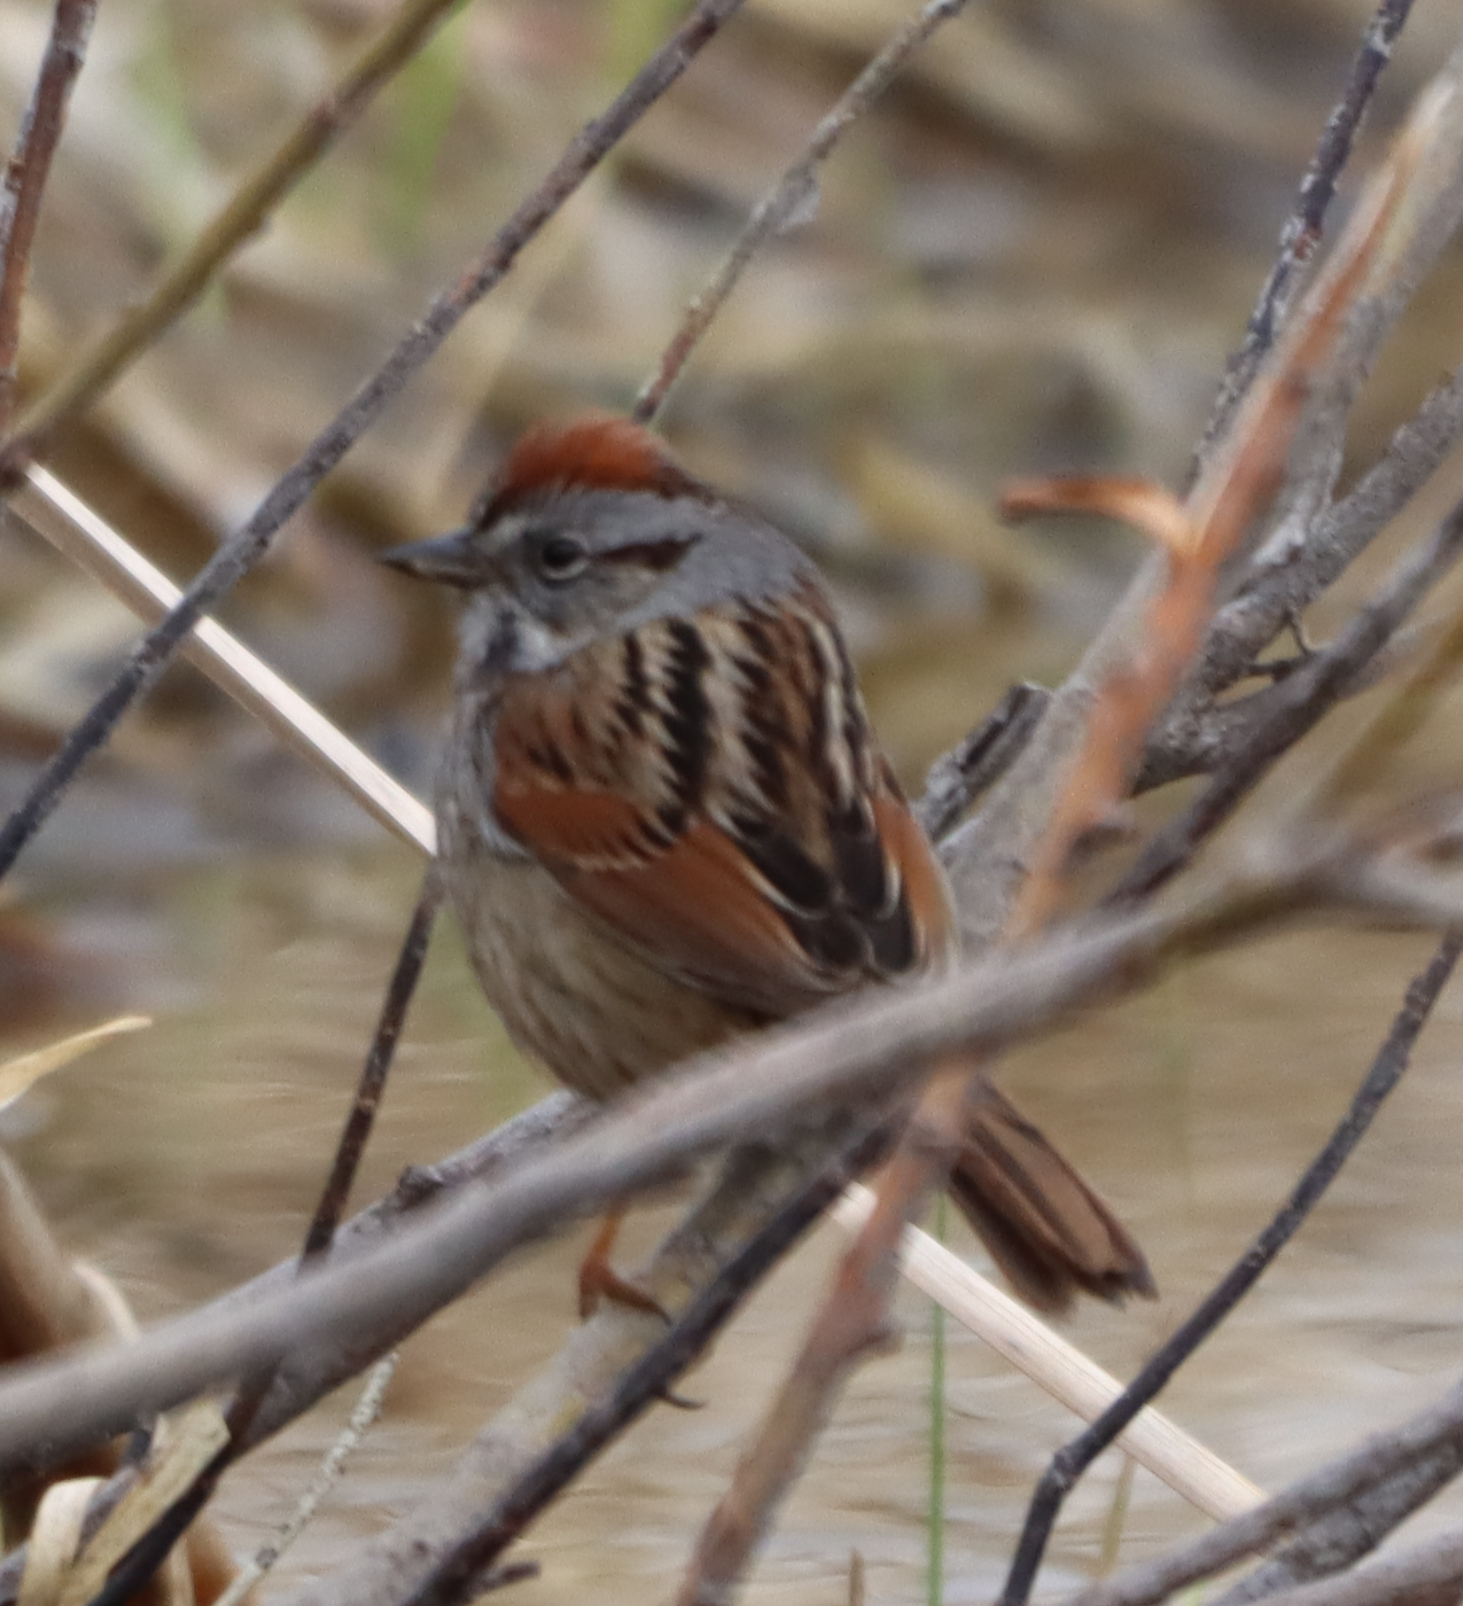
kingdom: Animalia
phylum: Chordata
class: Aves
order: Passeriformes
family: Passerellidae
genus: Melospiza
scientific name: Melospiza georgiana
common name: Swamp sparrow
